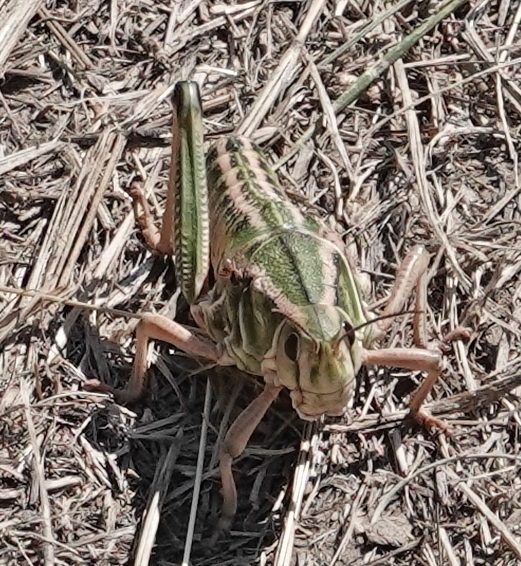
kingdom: Animalia
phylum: Arthropoda
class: Insecta
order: Orthoptera
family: Romaleidae
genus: Brachystola
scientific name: Brachystola magna
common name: Plains lubber grasshopper
